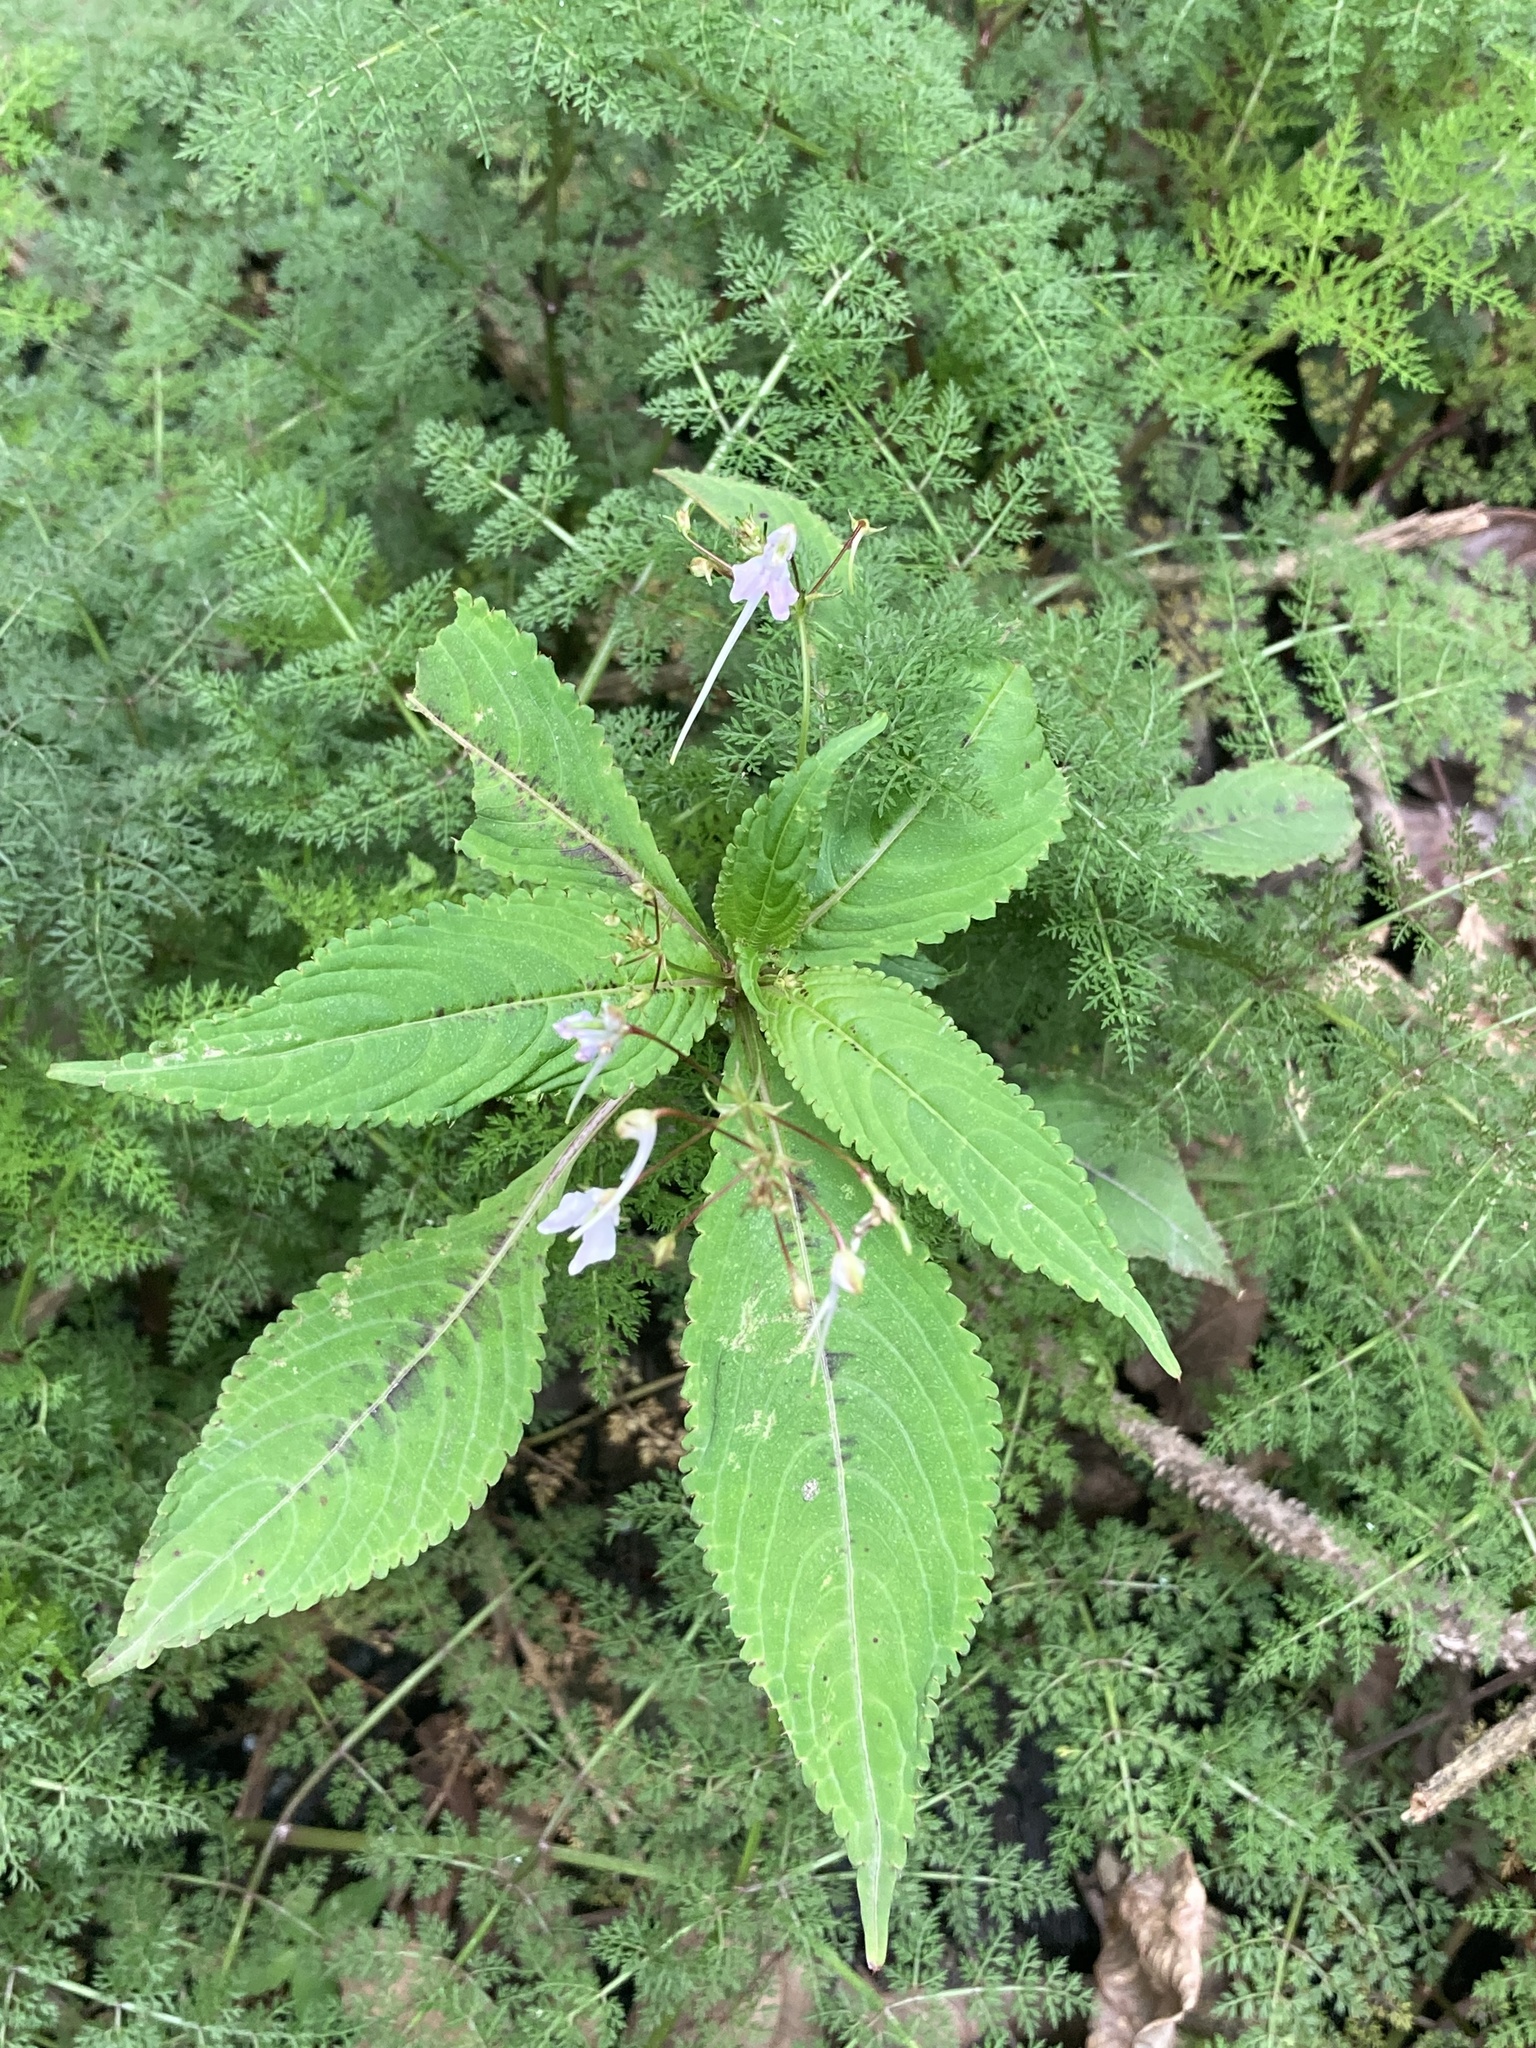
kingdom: Plantae
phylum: Tracheophyta
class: Magnoliopsida
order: Ericales
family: Balsaminaceae
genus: Impatiens
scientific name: Impatiens radiata
